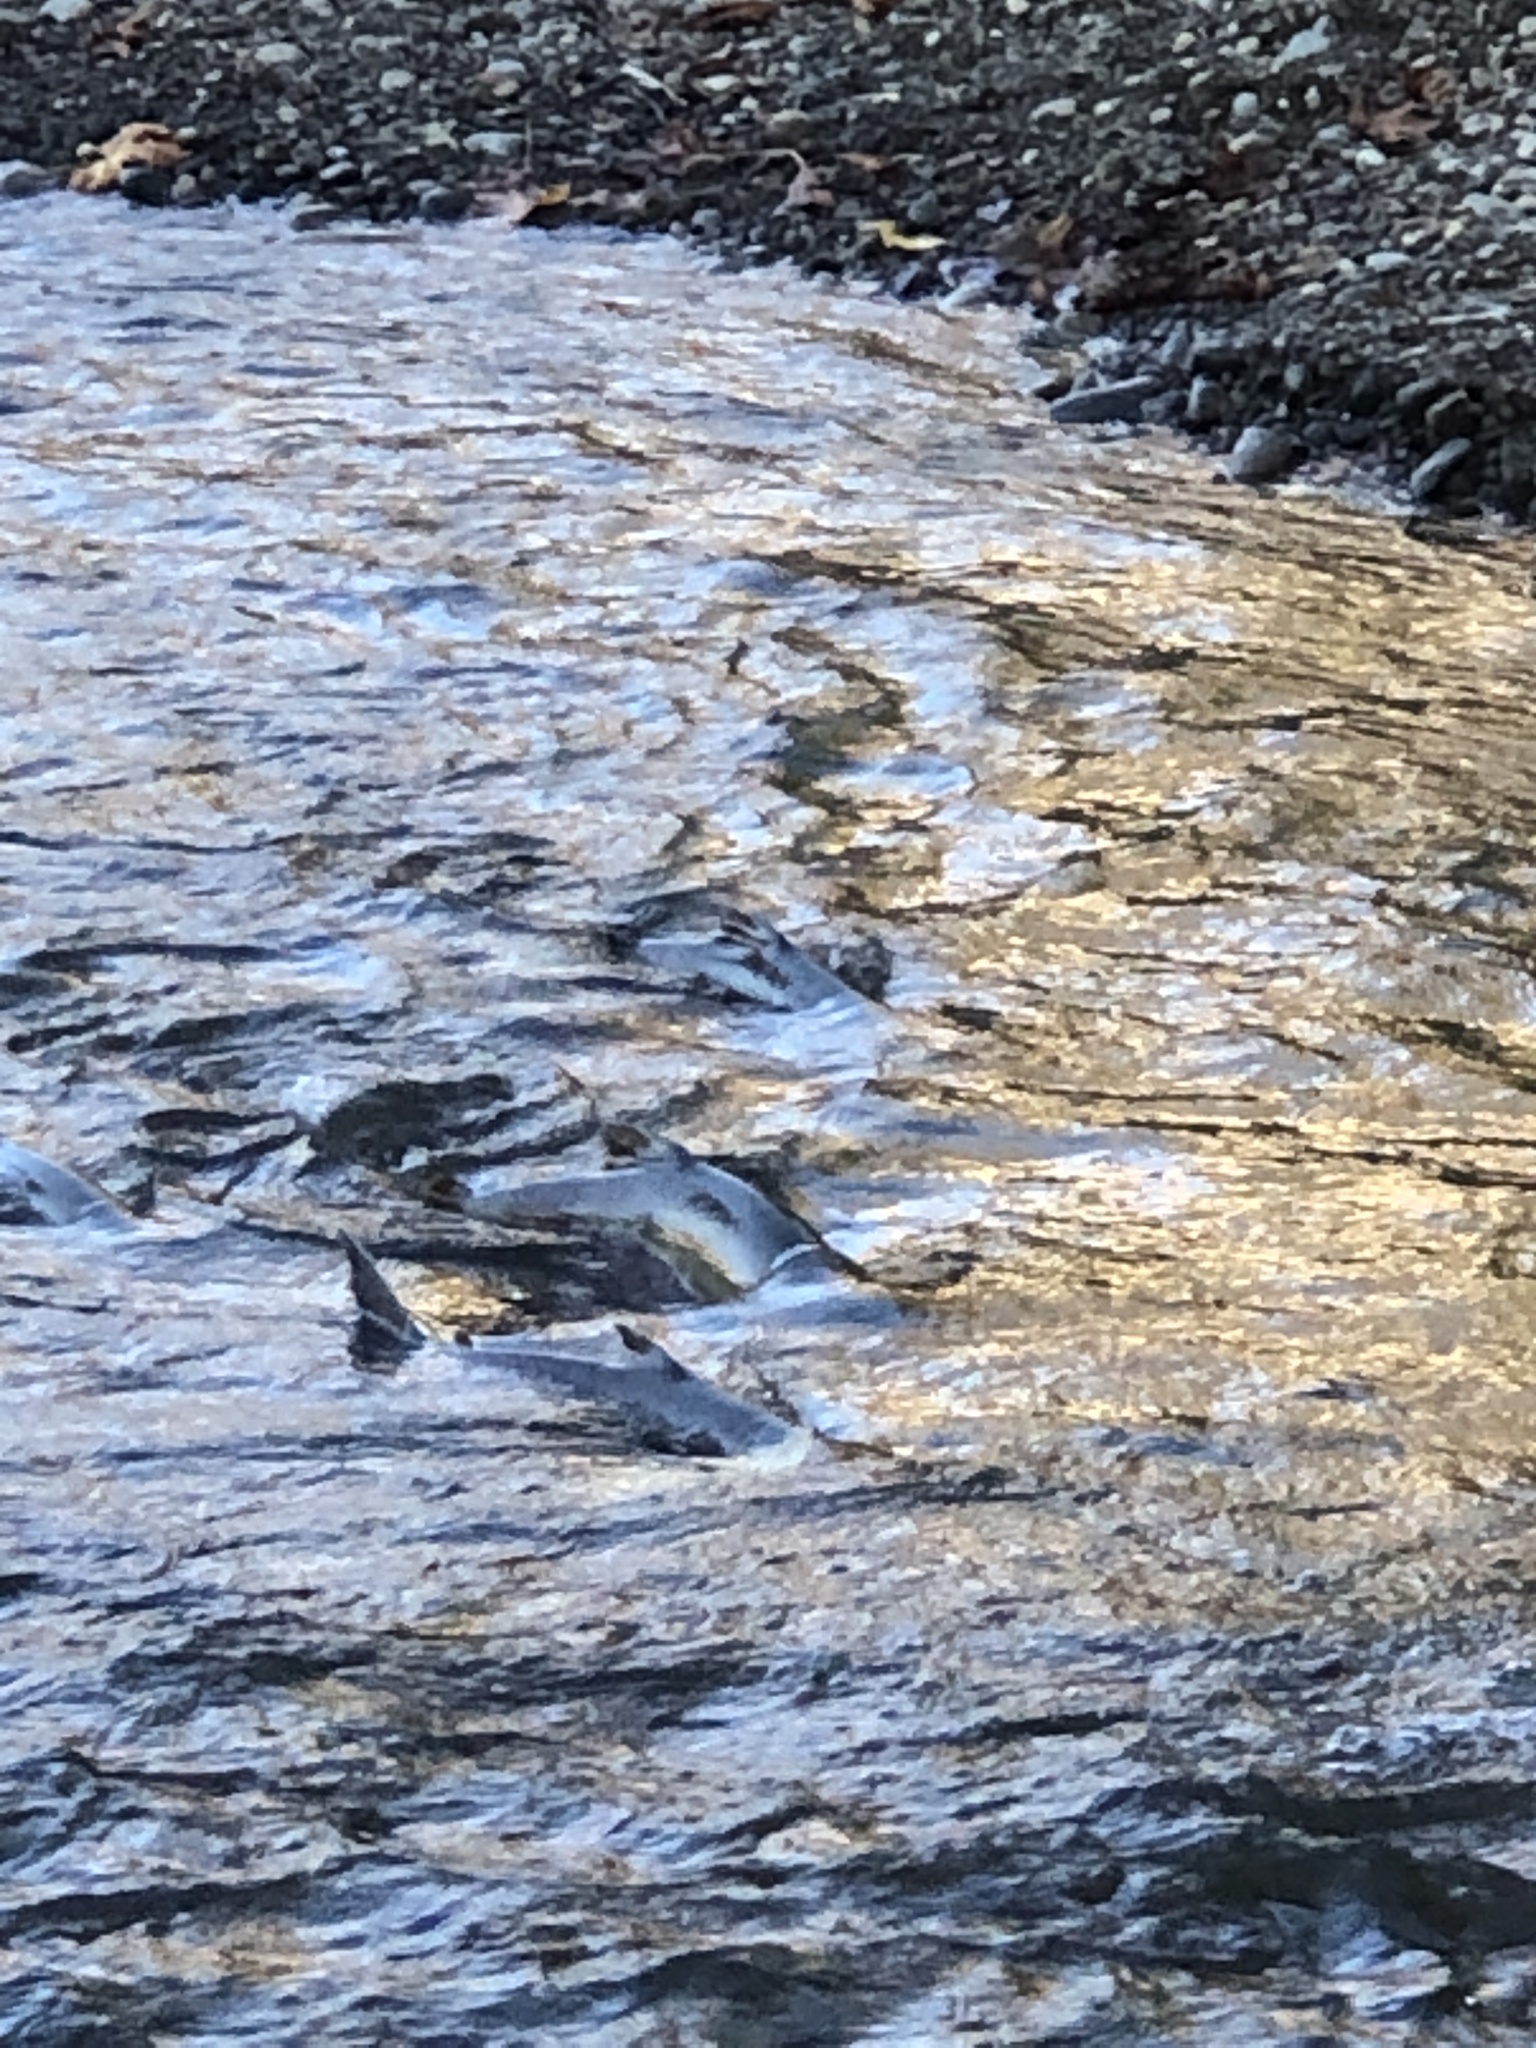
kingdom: Animalia
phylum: Chordata
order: Salmoniformes
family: Salmonidae
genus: Oncorhynchus
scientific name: Oncorhynchus keta
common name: Chum salmon
